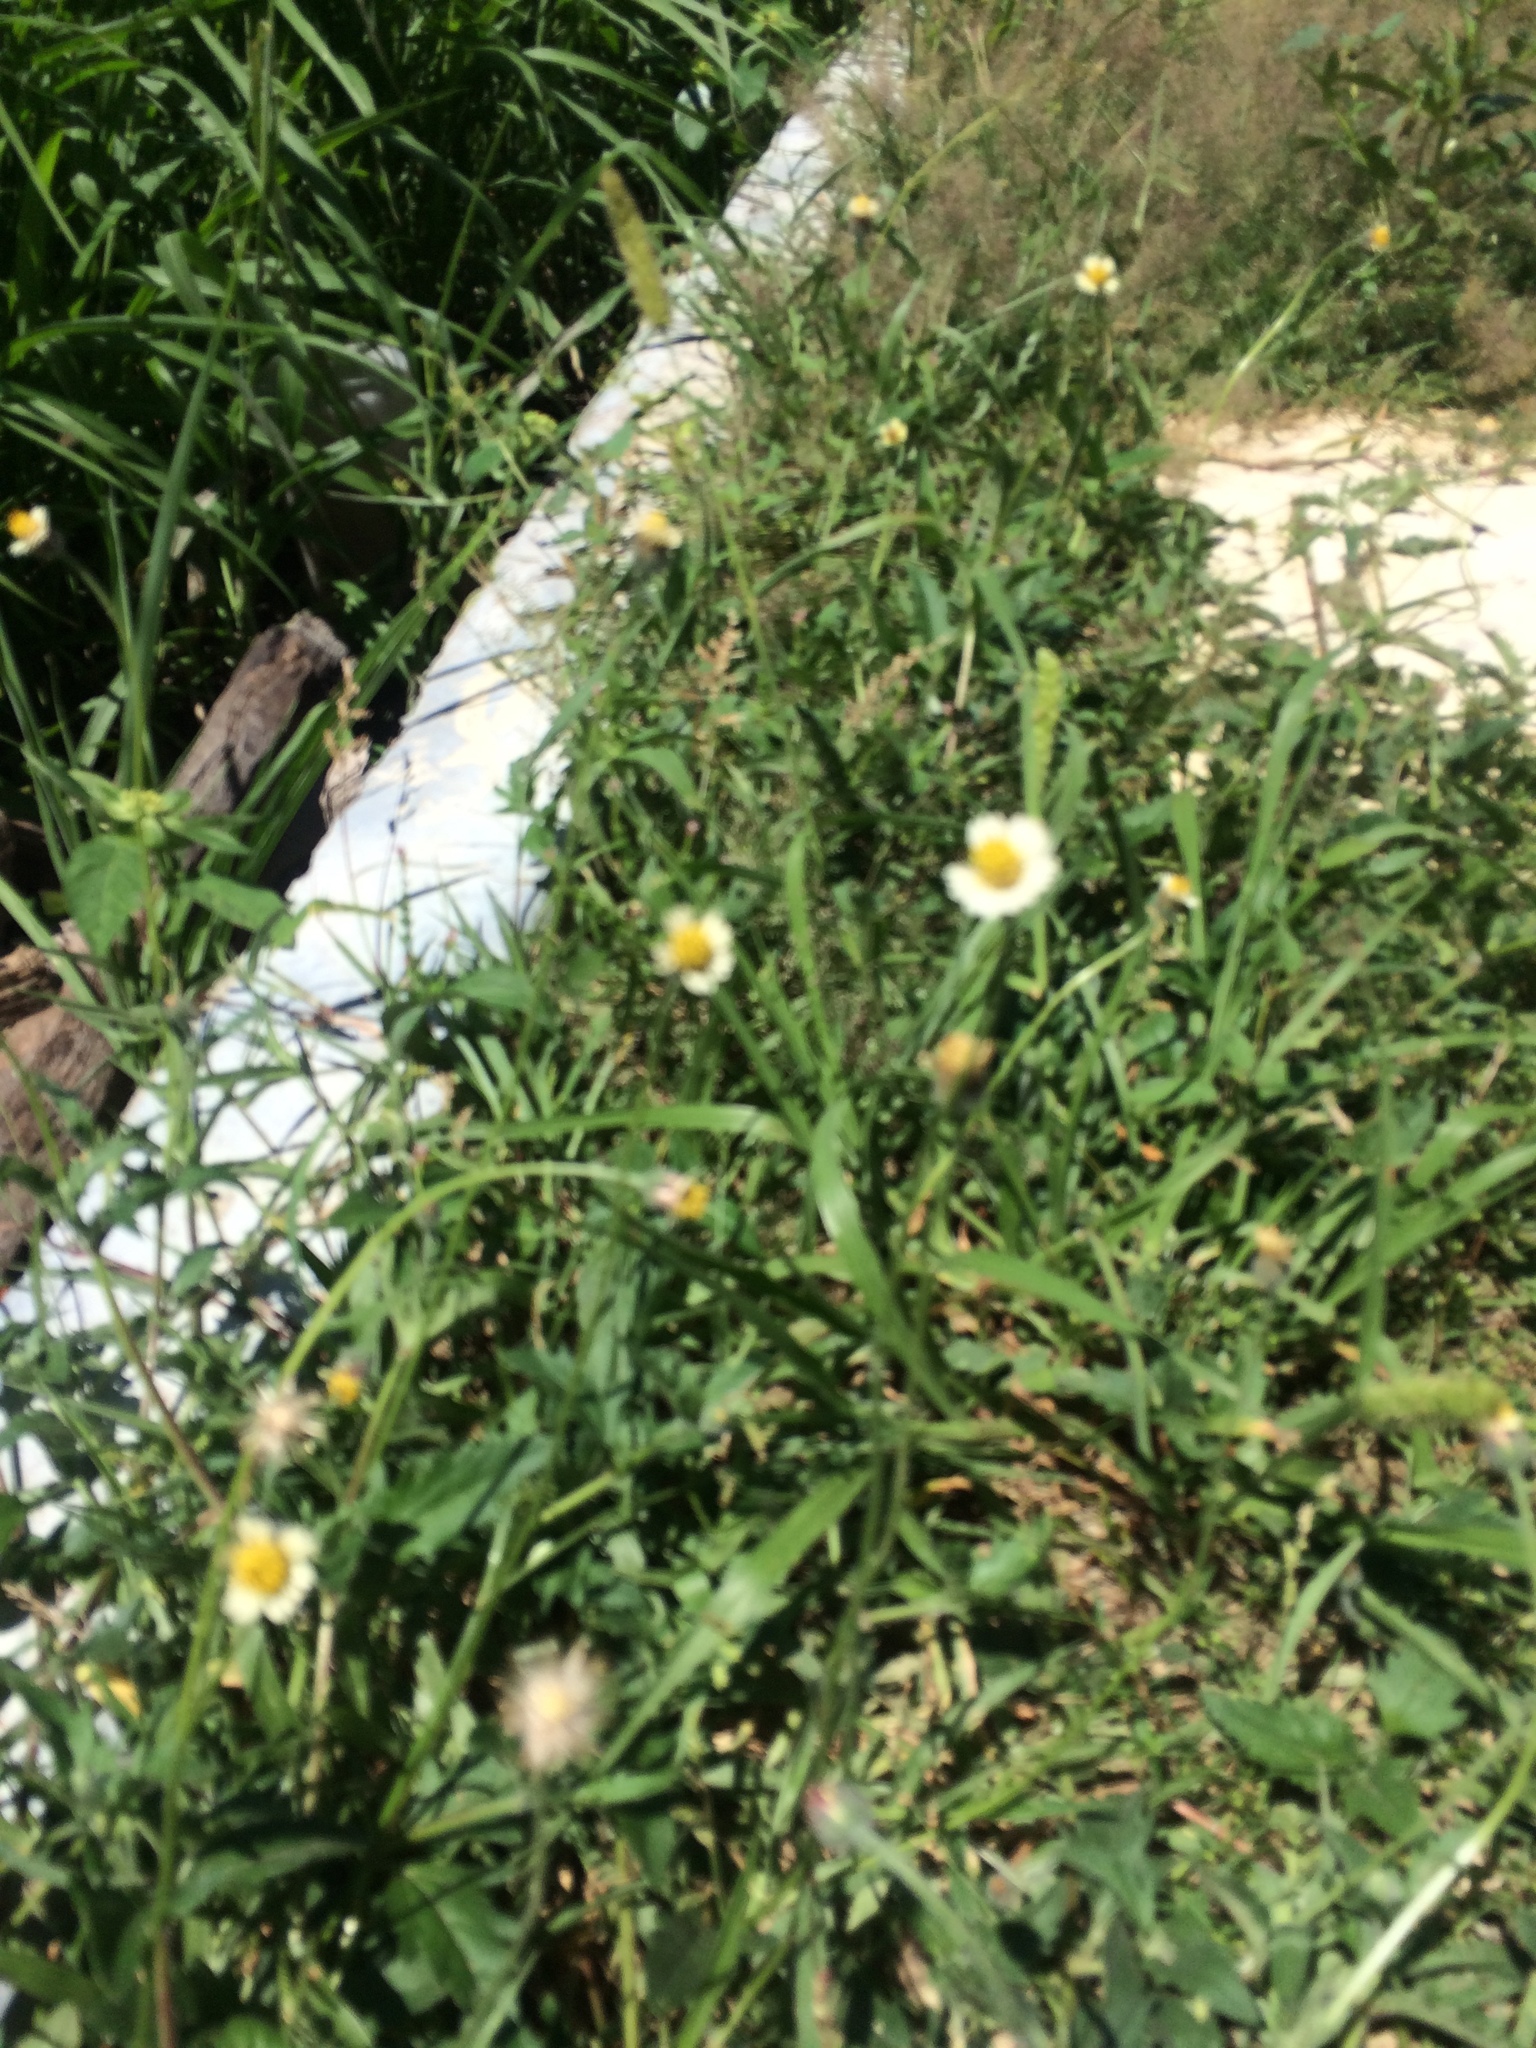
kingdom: Plantae
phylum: Tracheophyta
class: Magnoliopsida
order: Asterales
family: Asteraceae
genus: Tridax
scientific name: Tridax procumbens
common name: Coatbuttons
